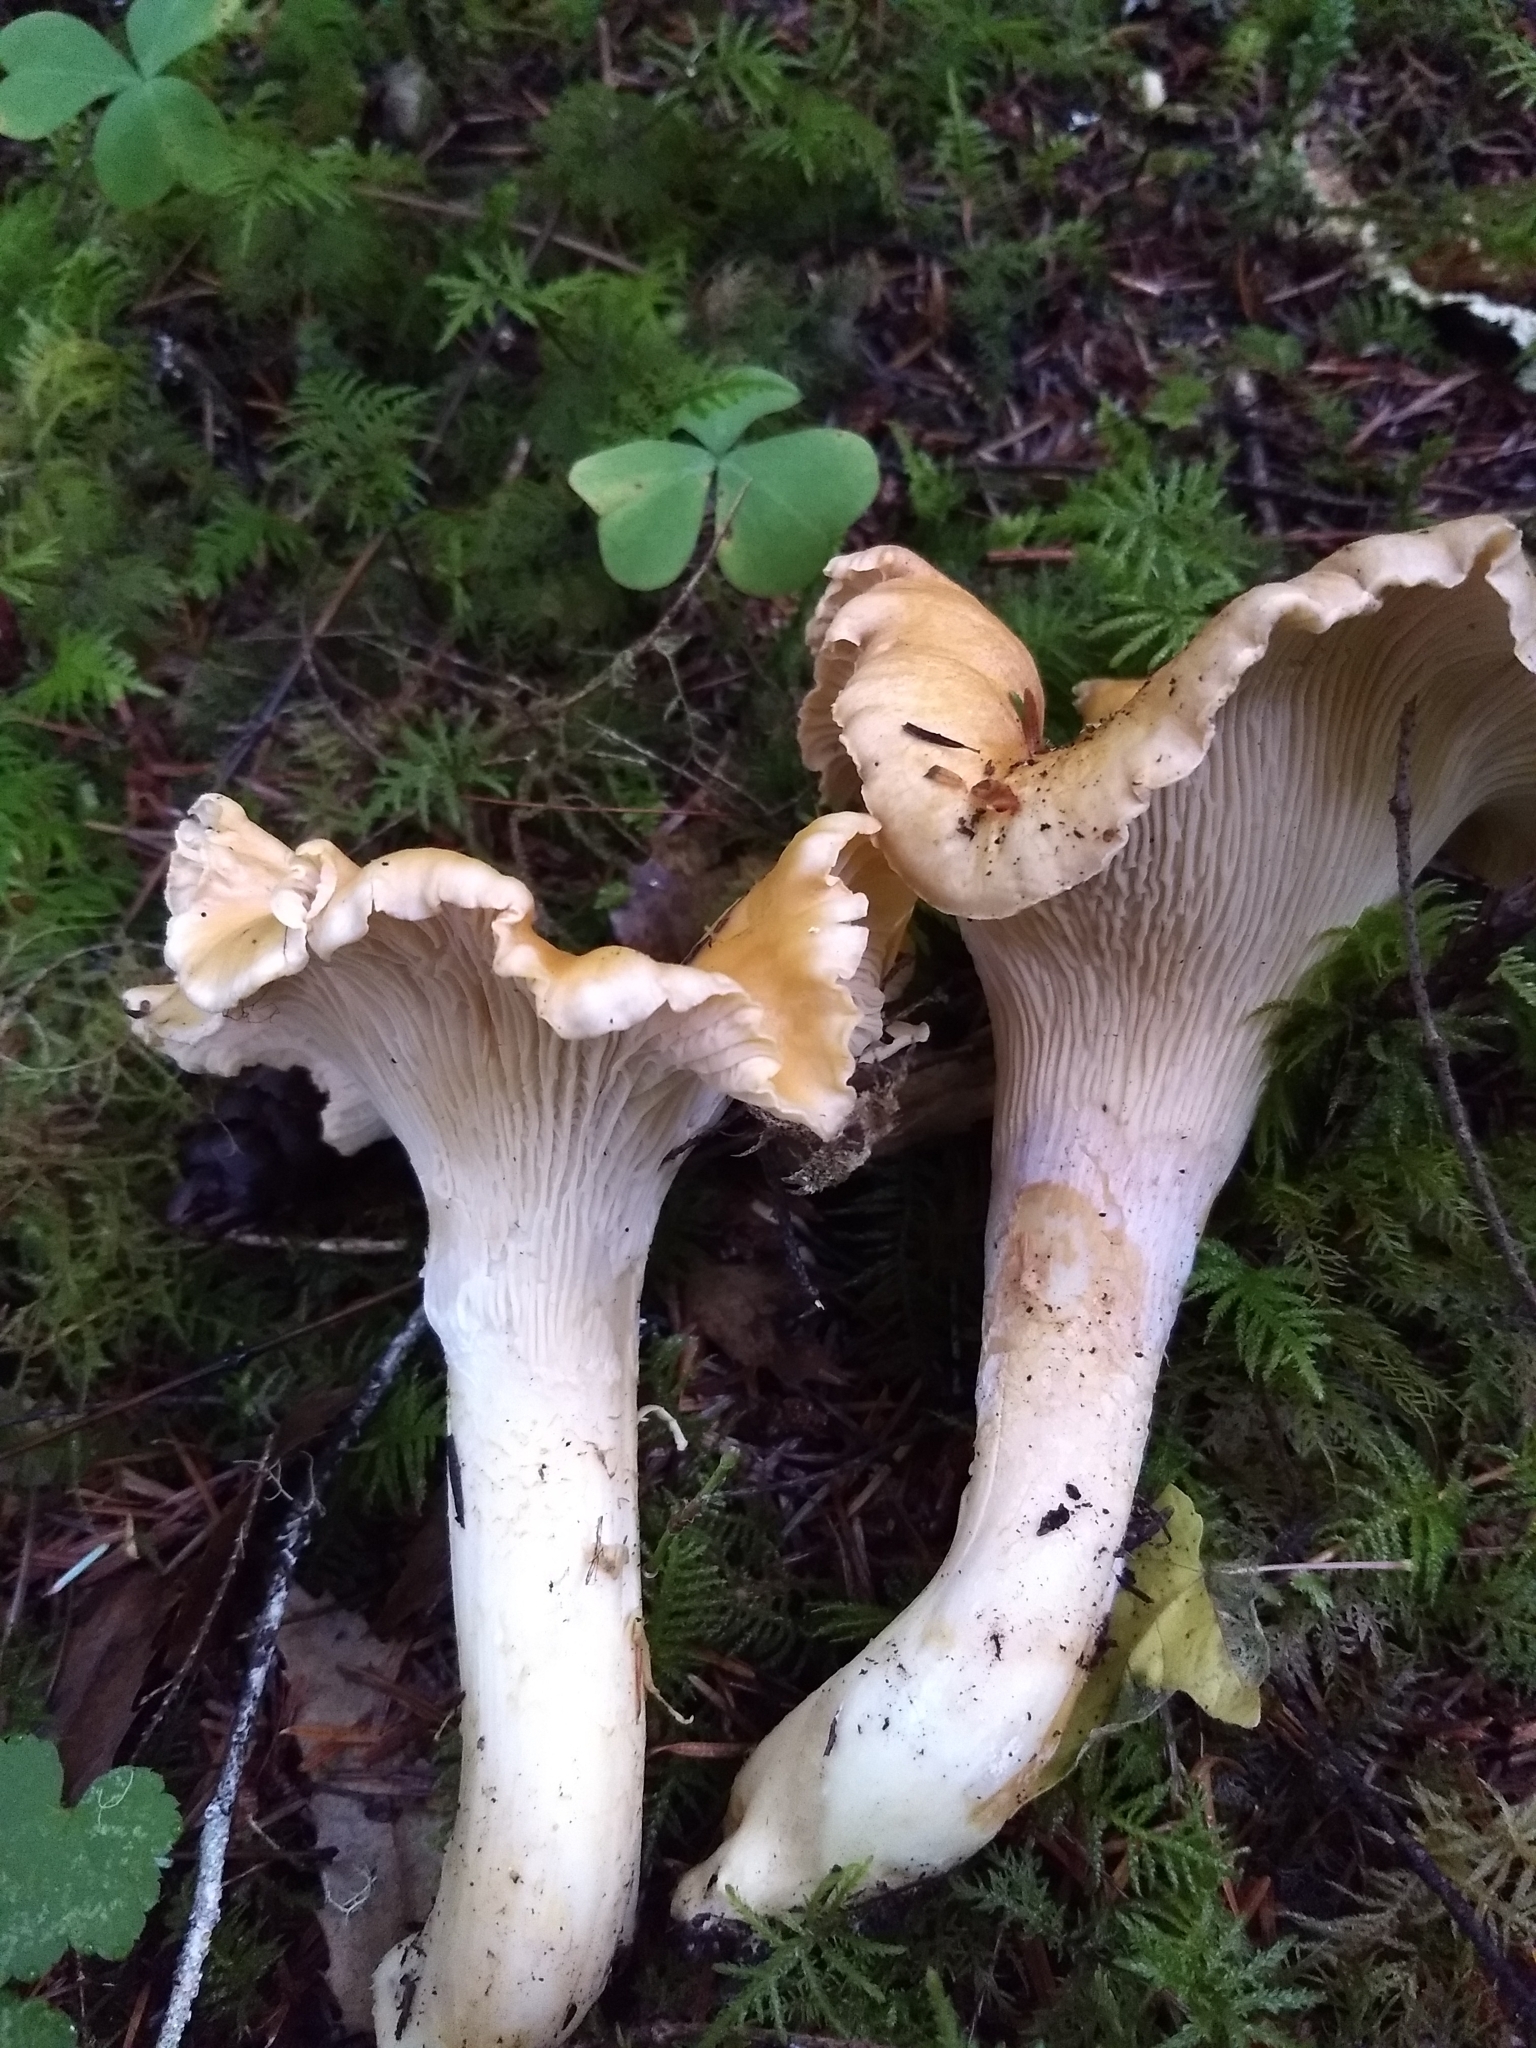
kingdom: Fungi
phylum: Basidiomycota
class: Agaricomycetes
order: Cantharellales
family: Hydnaceae
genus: Cantharellus
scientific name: Cantharellus formosus
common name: Pacific golden chanterelle
